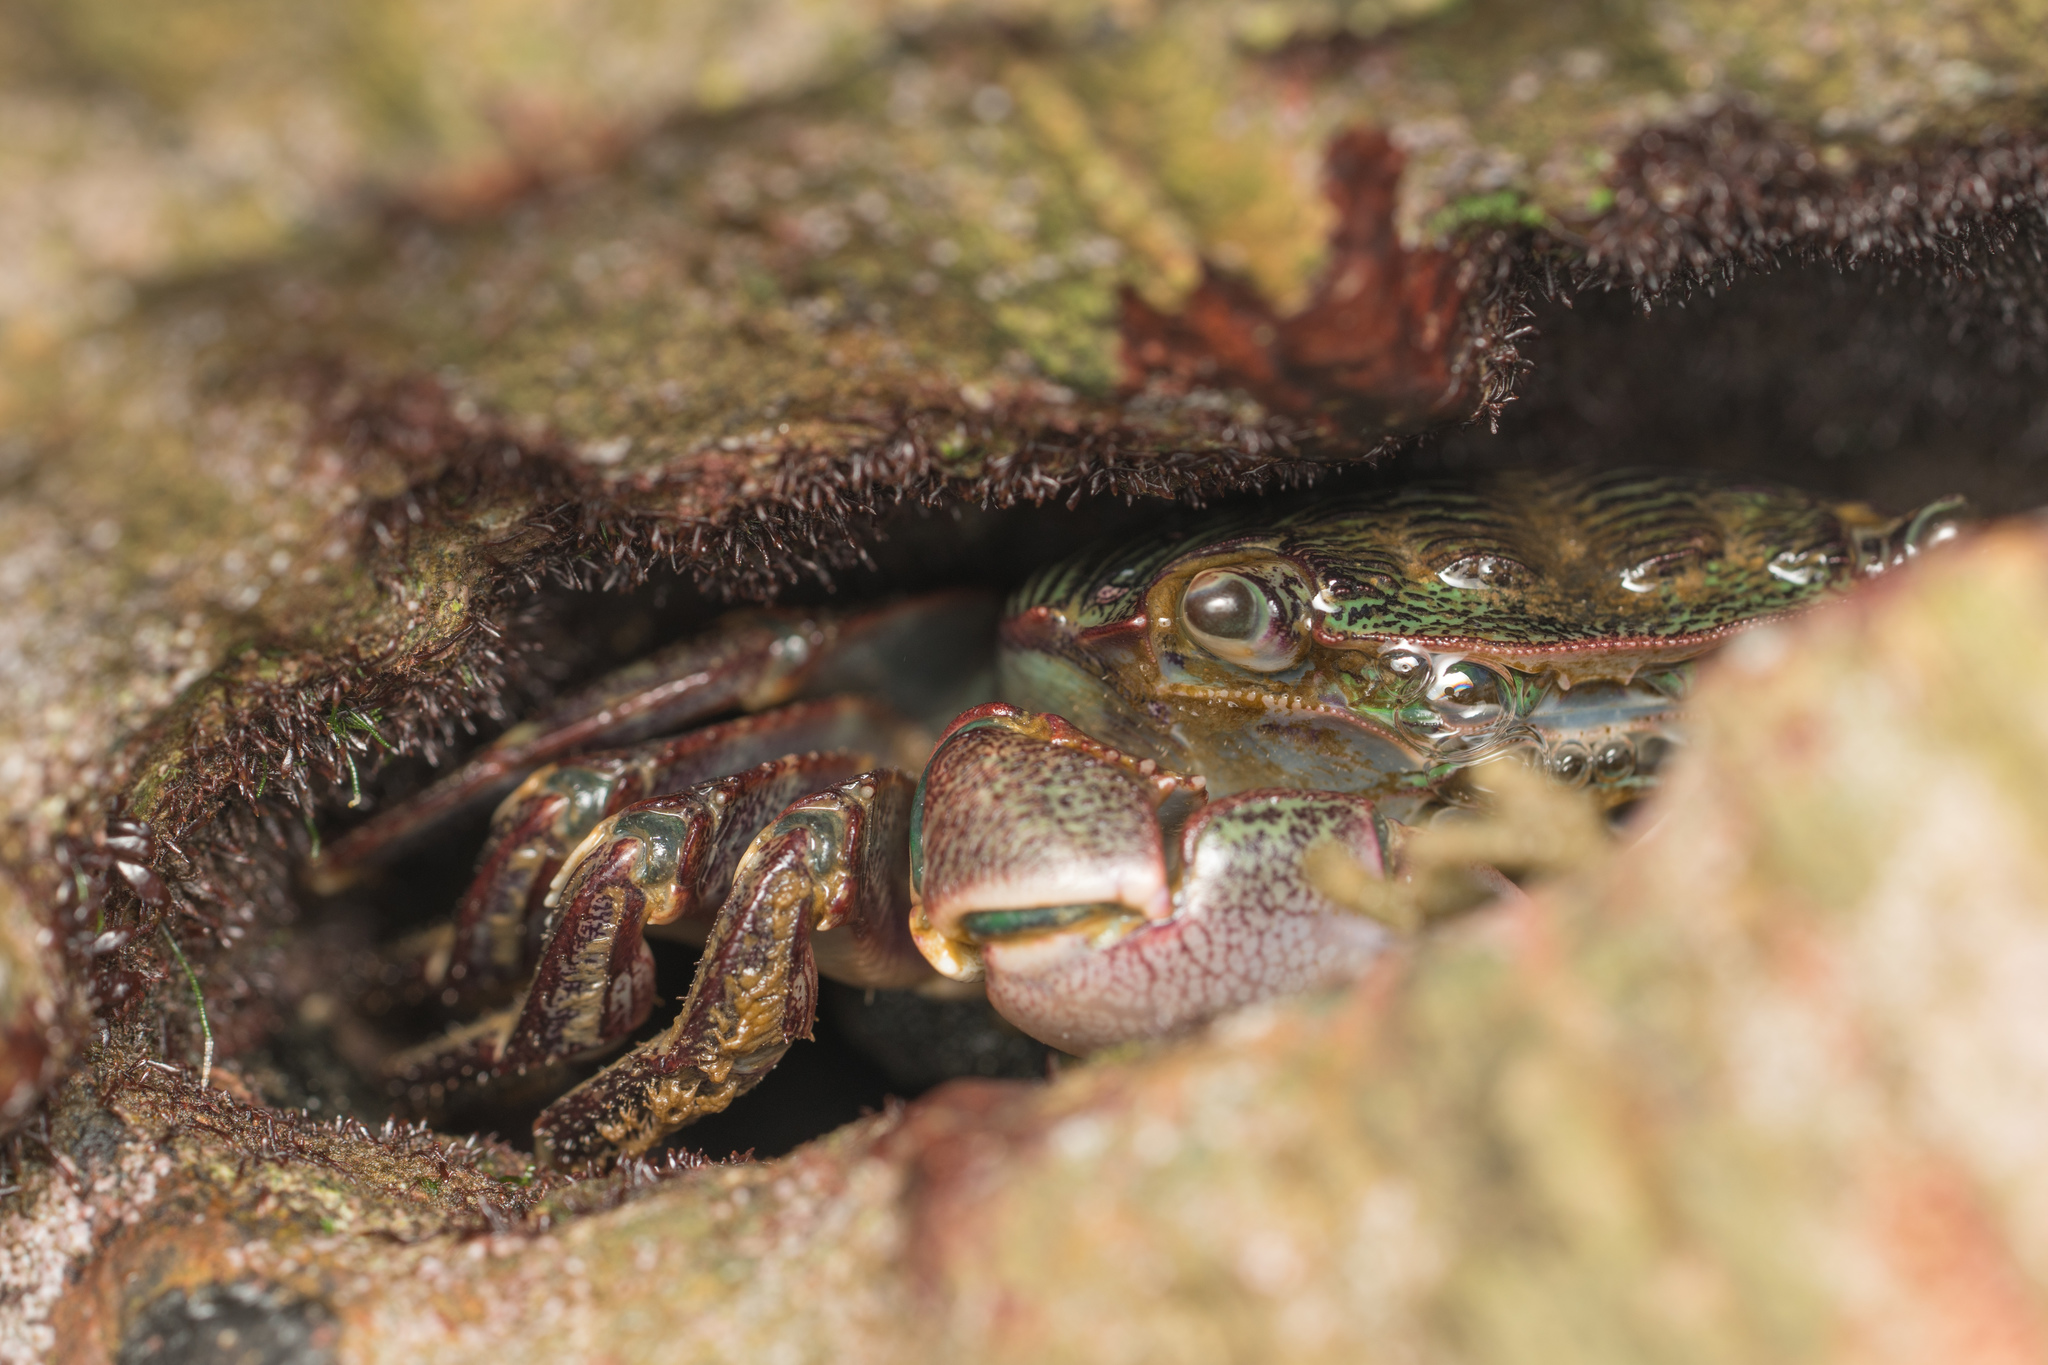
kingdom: Animalia
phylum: Arthropoda
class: Malacostraca
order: Decapoda
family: Grapsidae
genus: Pachygrapsus
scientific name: Pachygrapsus crassipes
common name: Striped shore crab
